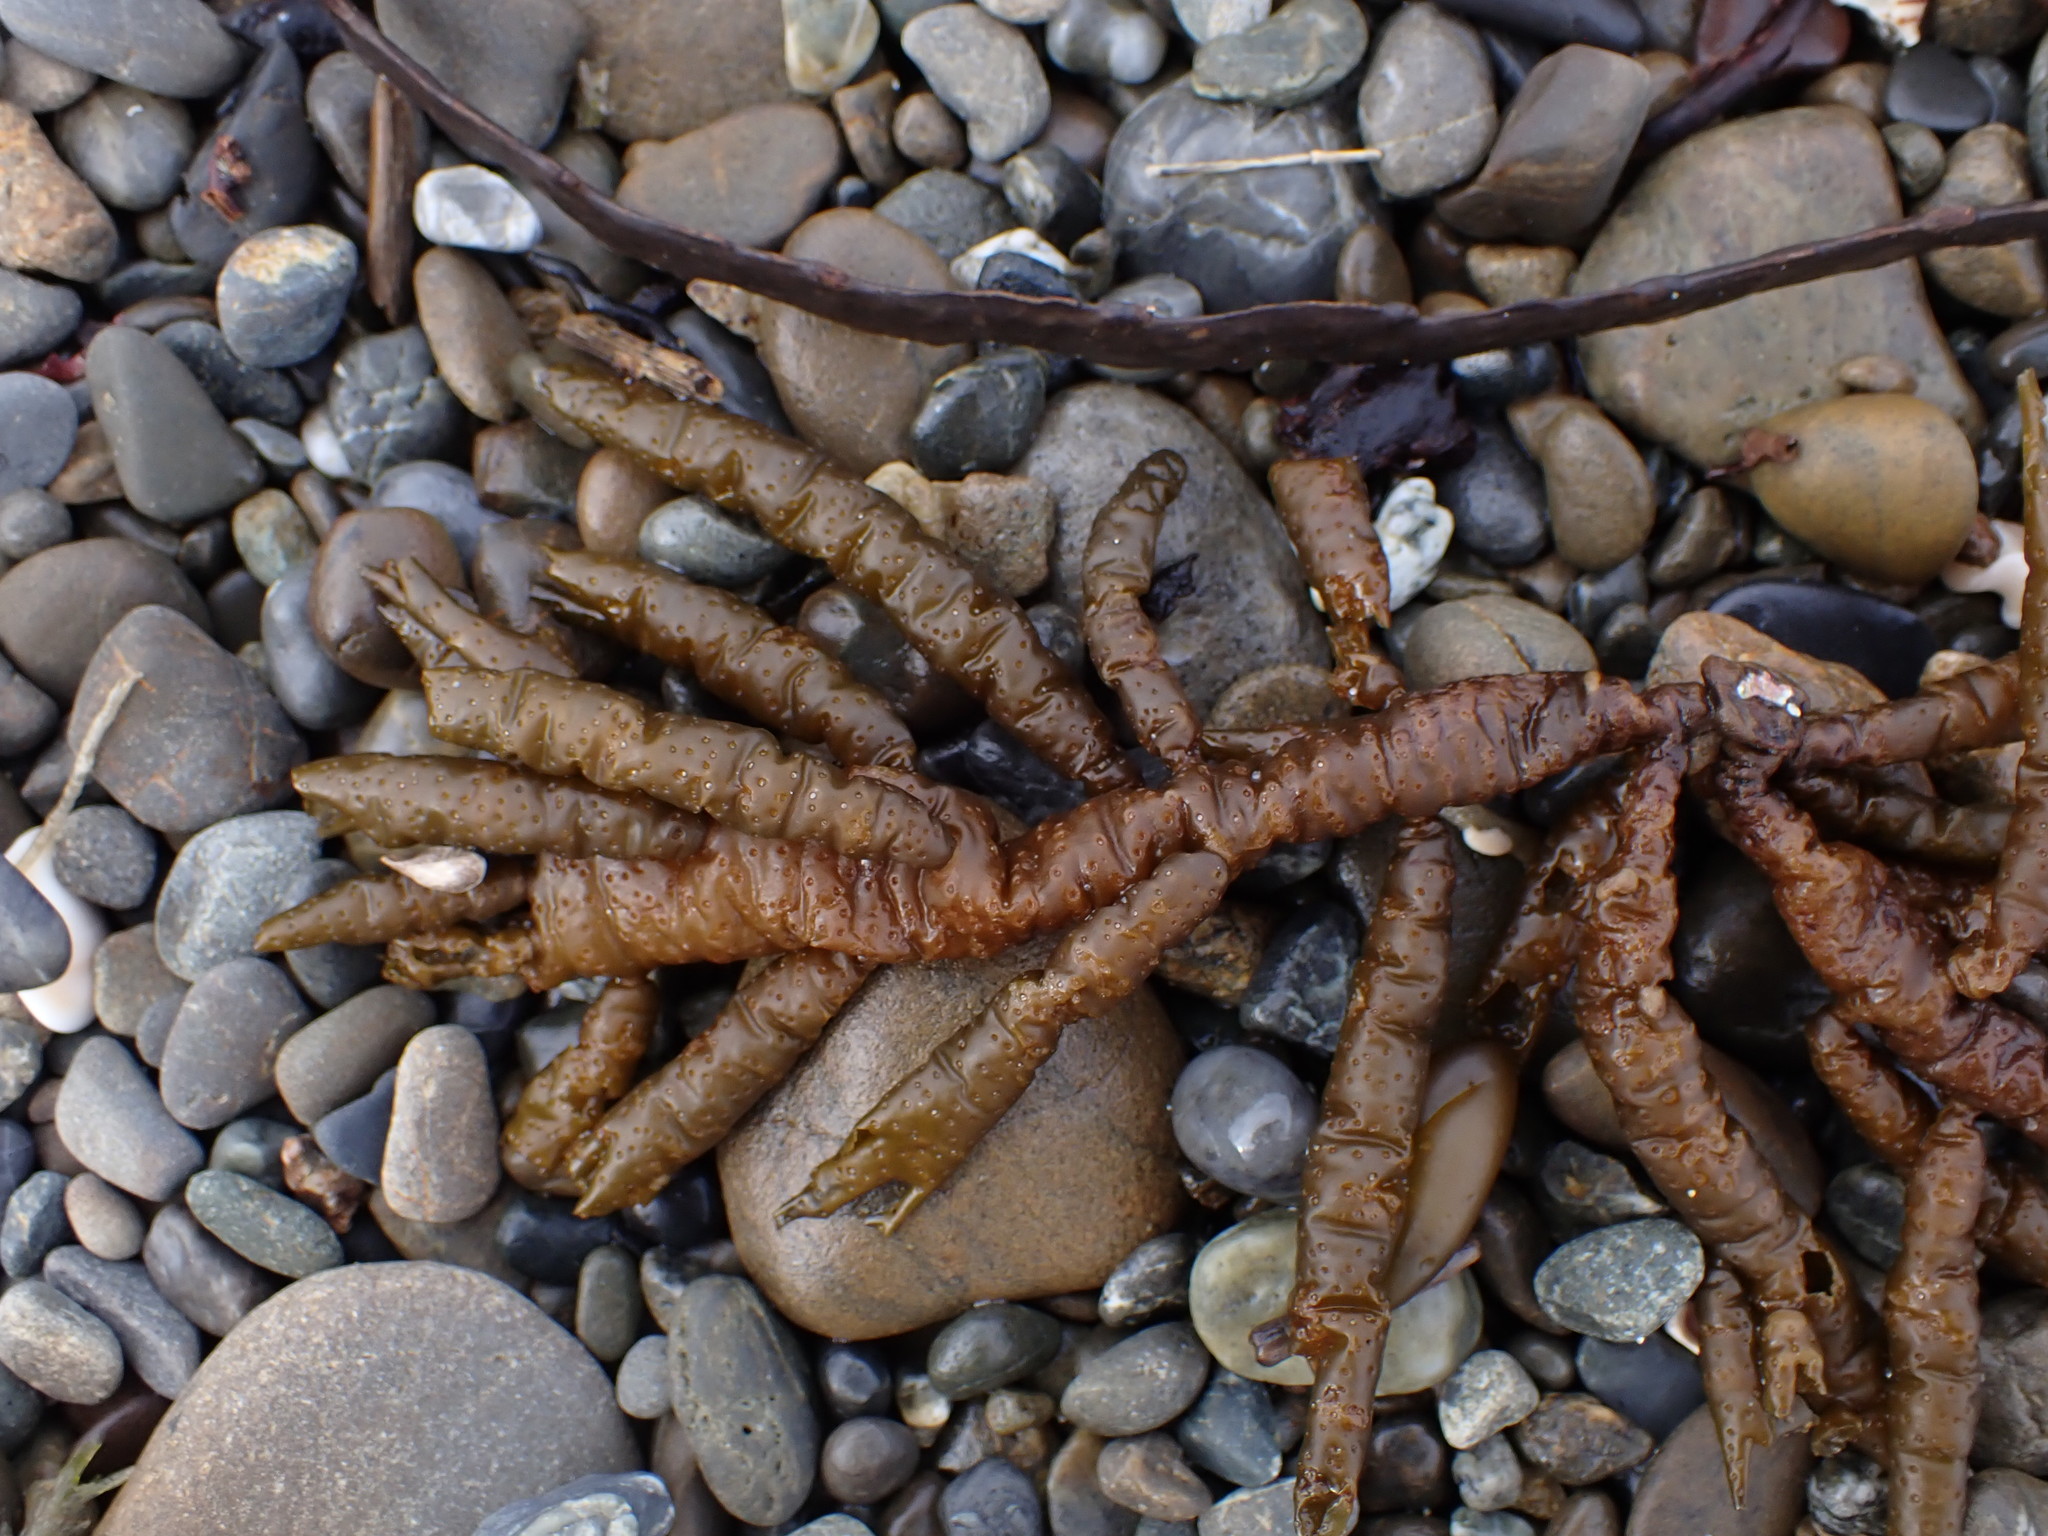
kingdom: Chromista
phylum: Ochrophyta
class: Phaeophyceae
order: Scytothamnales
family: Splachnidiaceae
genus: Splachnidium
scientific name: Splachnidium rugosum
